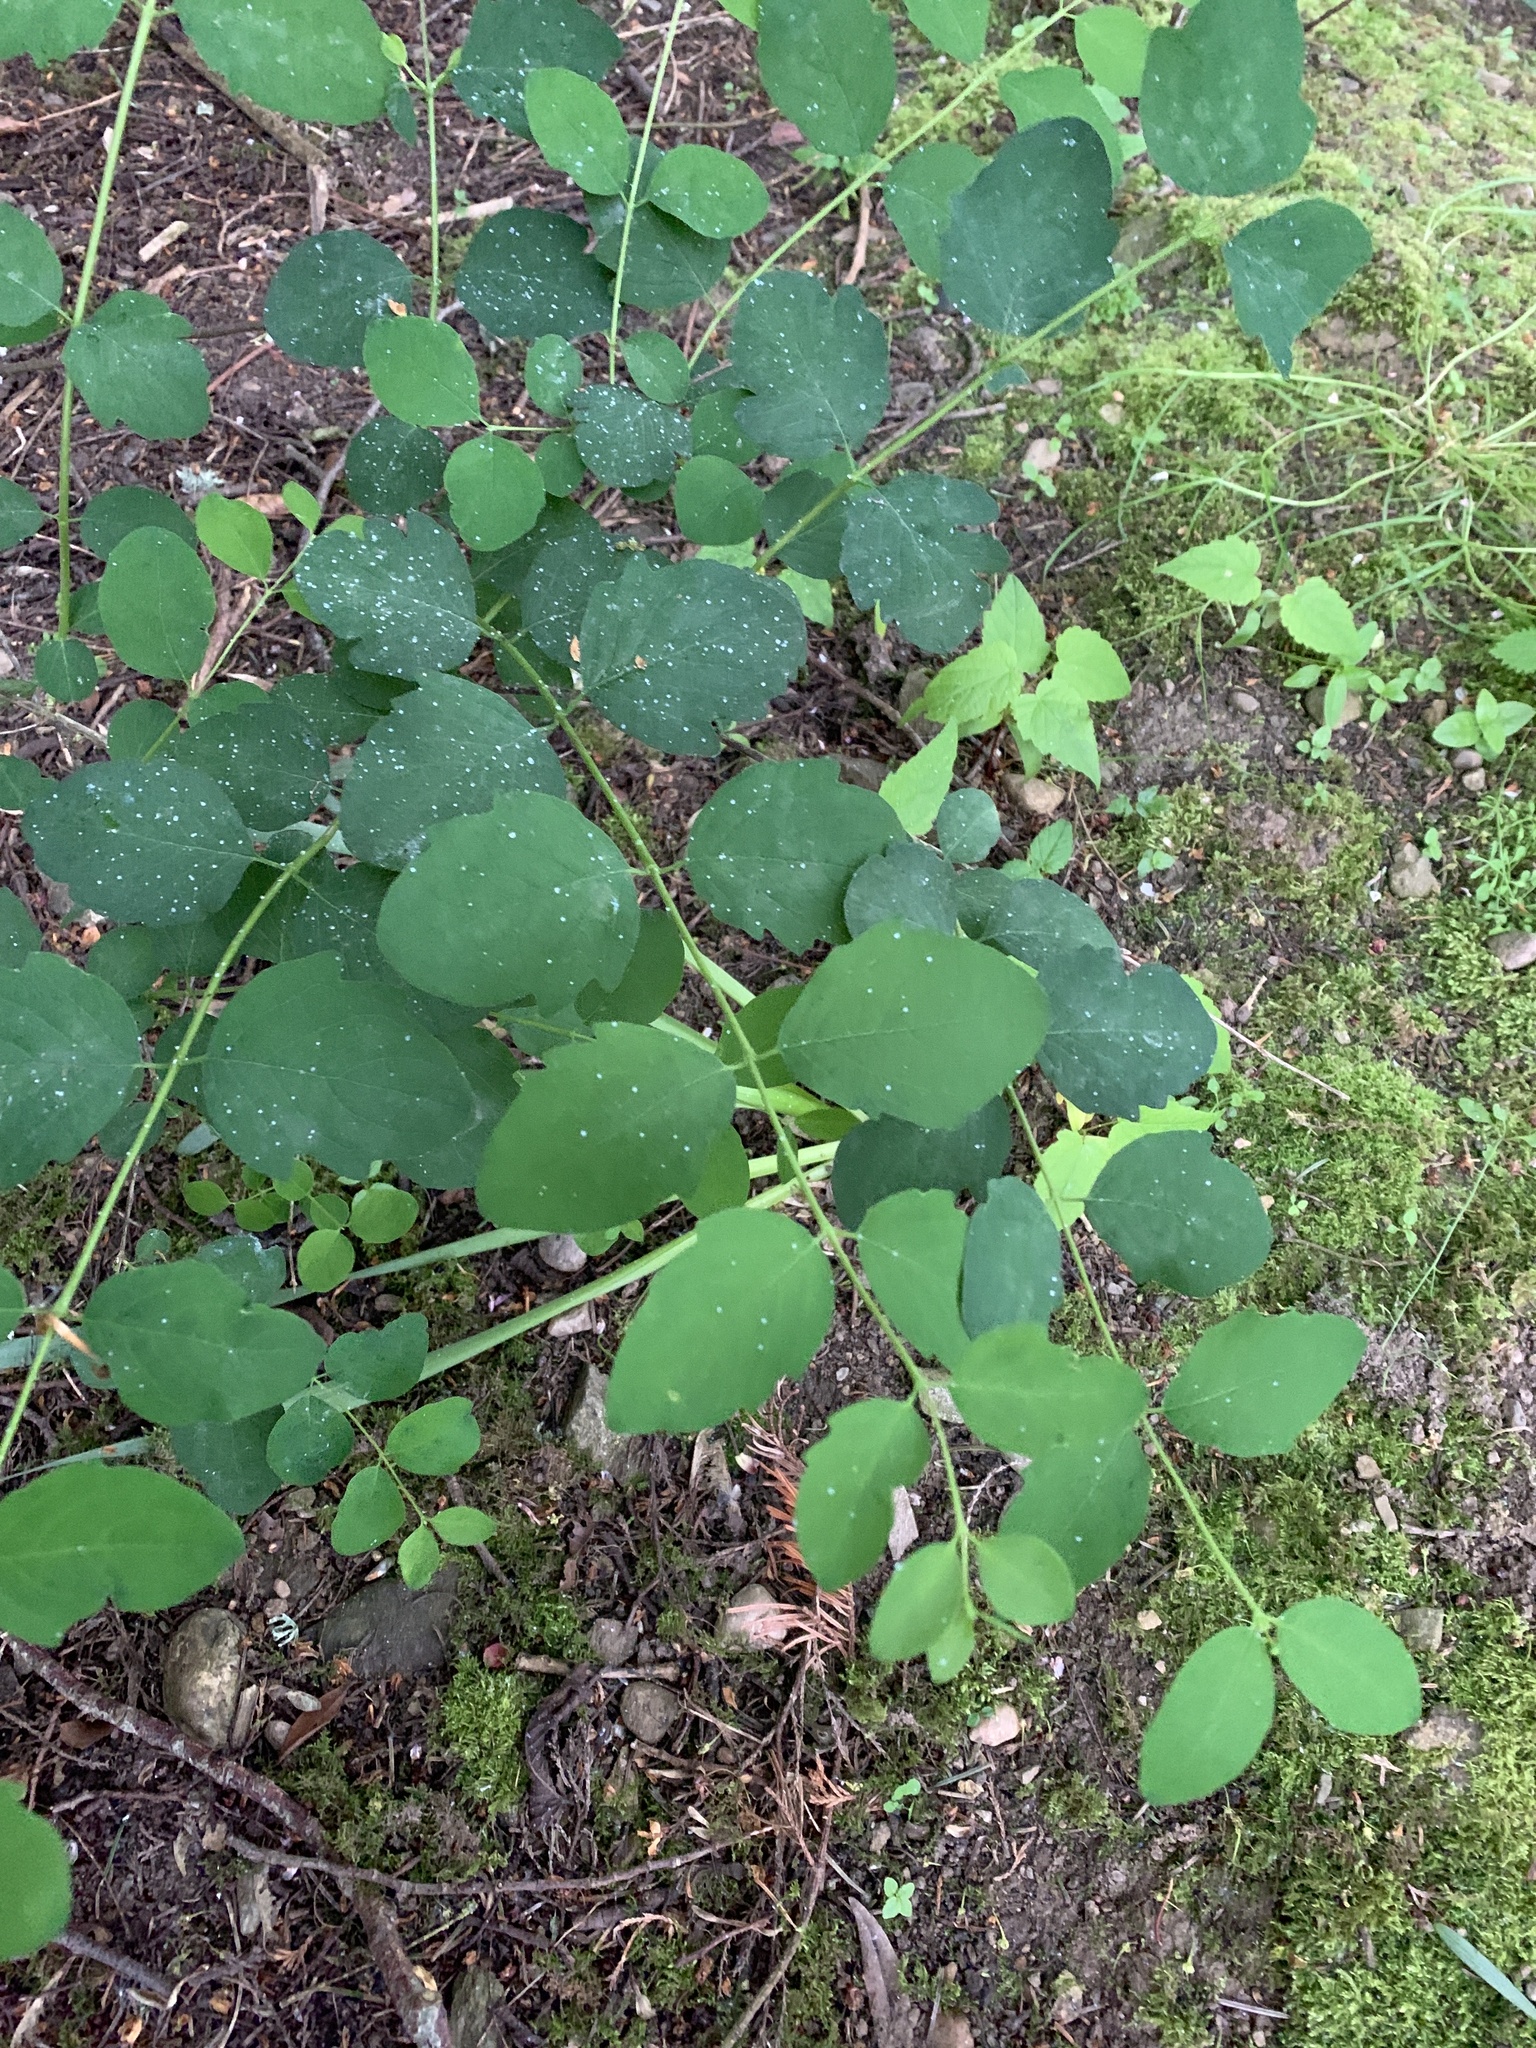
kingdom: Plantae
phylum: Tracheophyta
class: Magnoliopsida
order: Dipsacales
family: Caprifoliaceae
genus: Symphoricarpos
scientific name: Symphoricarpos albus
